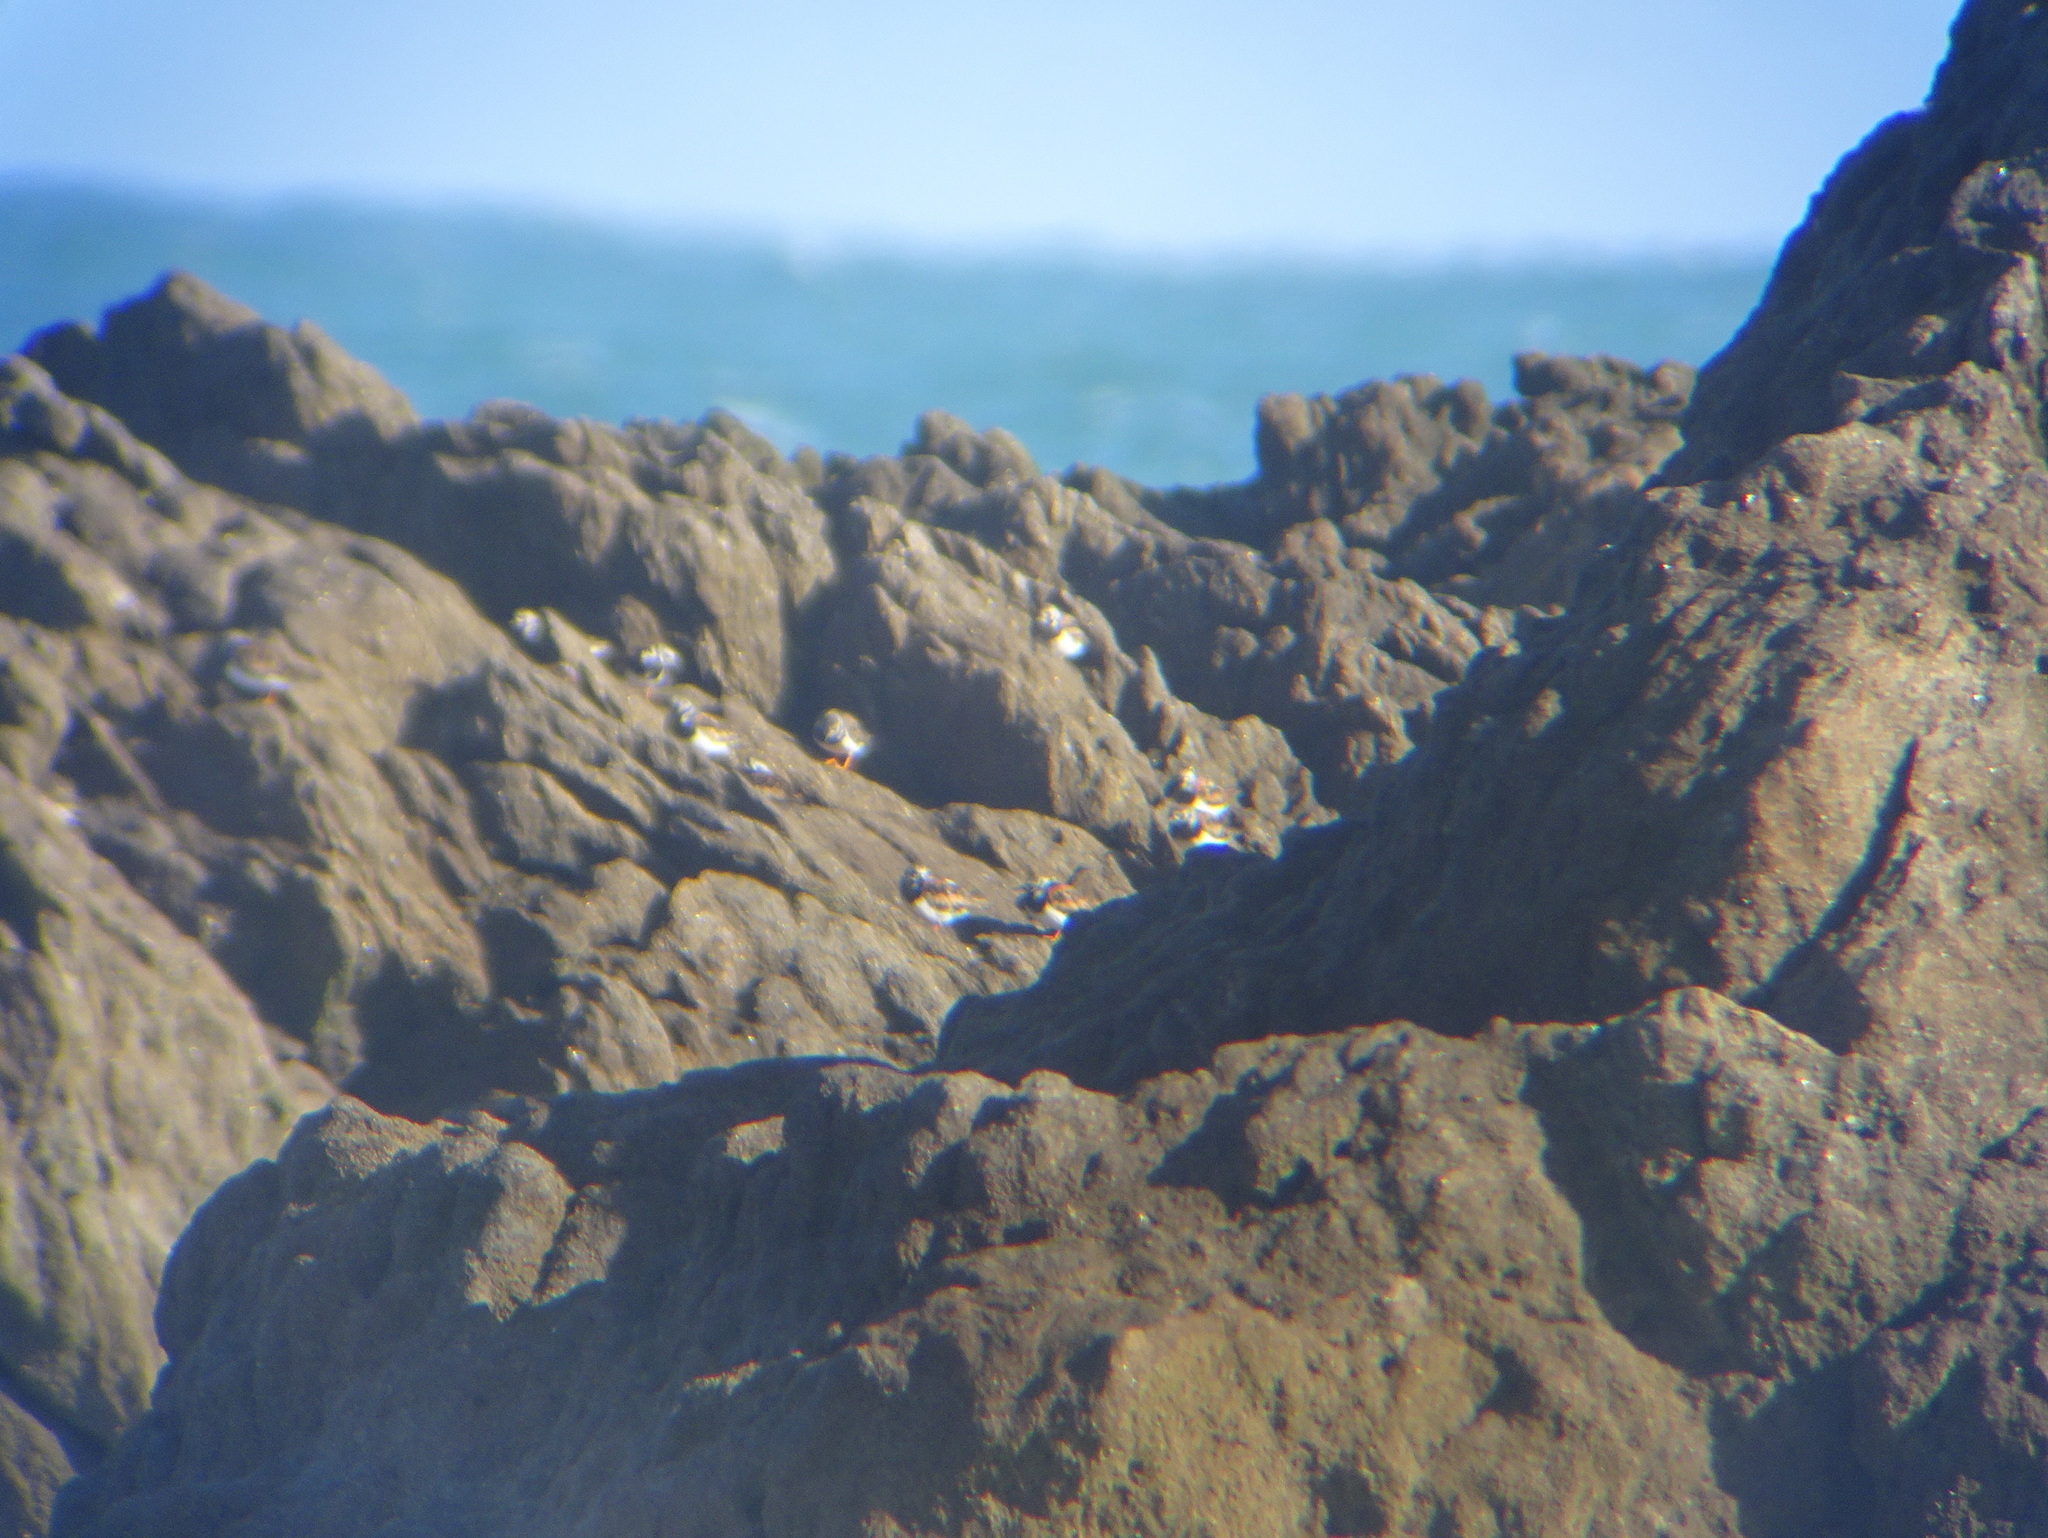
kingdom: Animalia
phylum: Chordata
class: Aves
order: Charadriiformes
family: Scolopacidae
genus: Arenaria
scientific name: Arenaria interpres
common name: Ruddy turnstone
